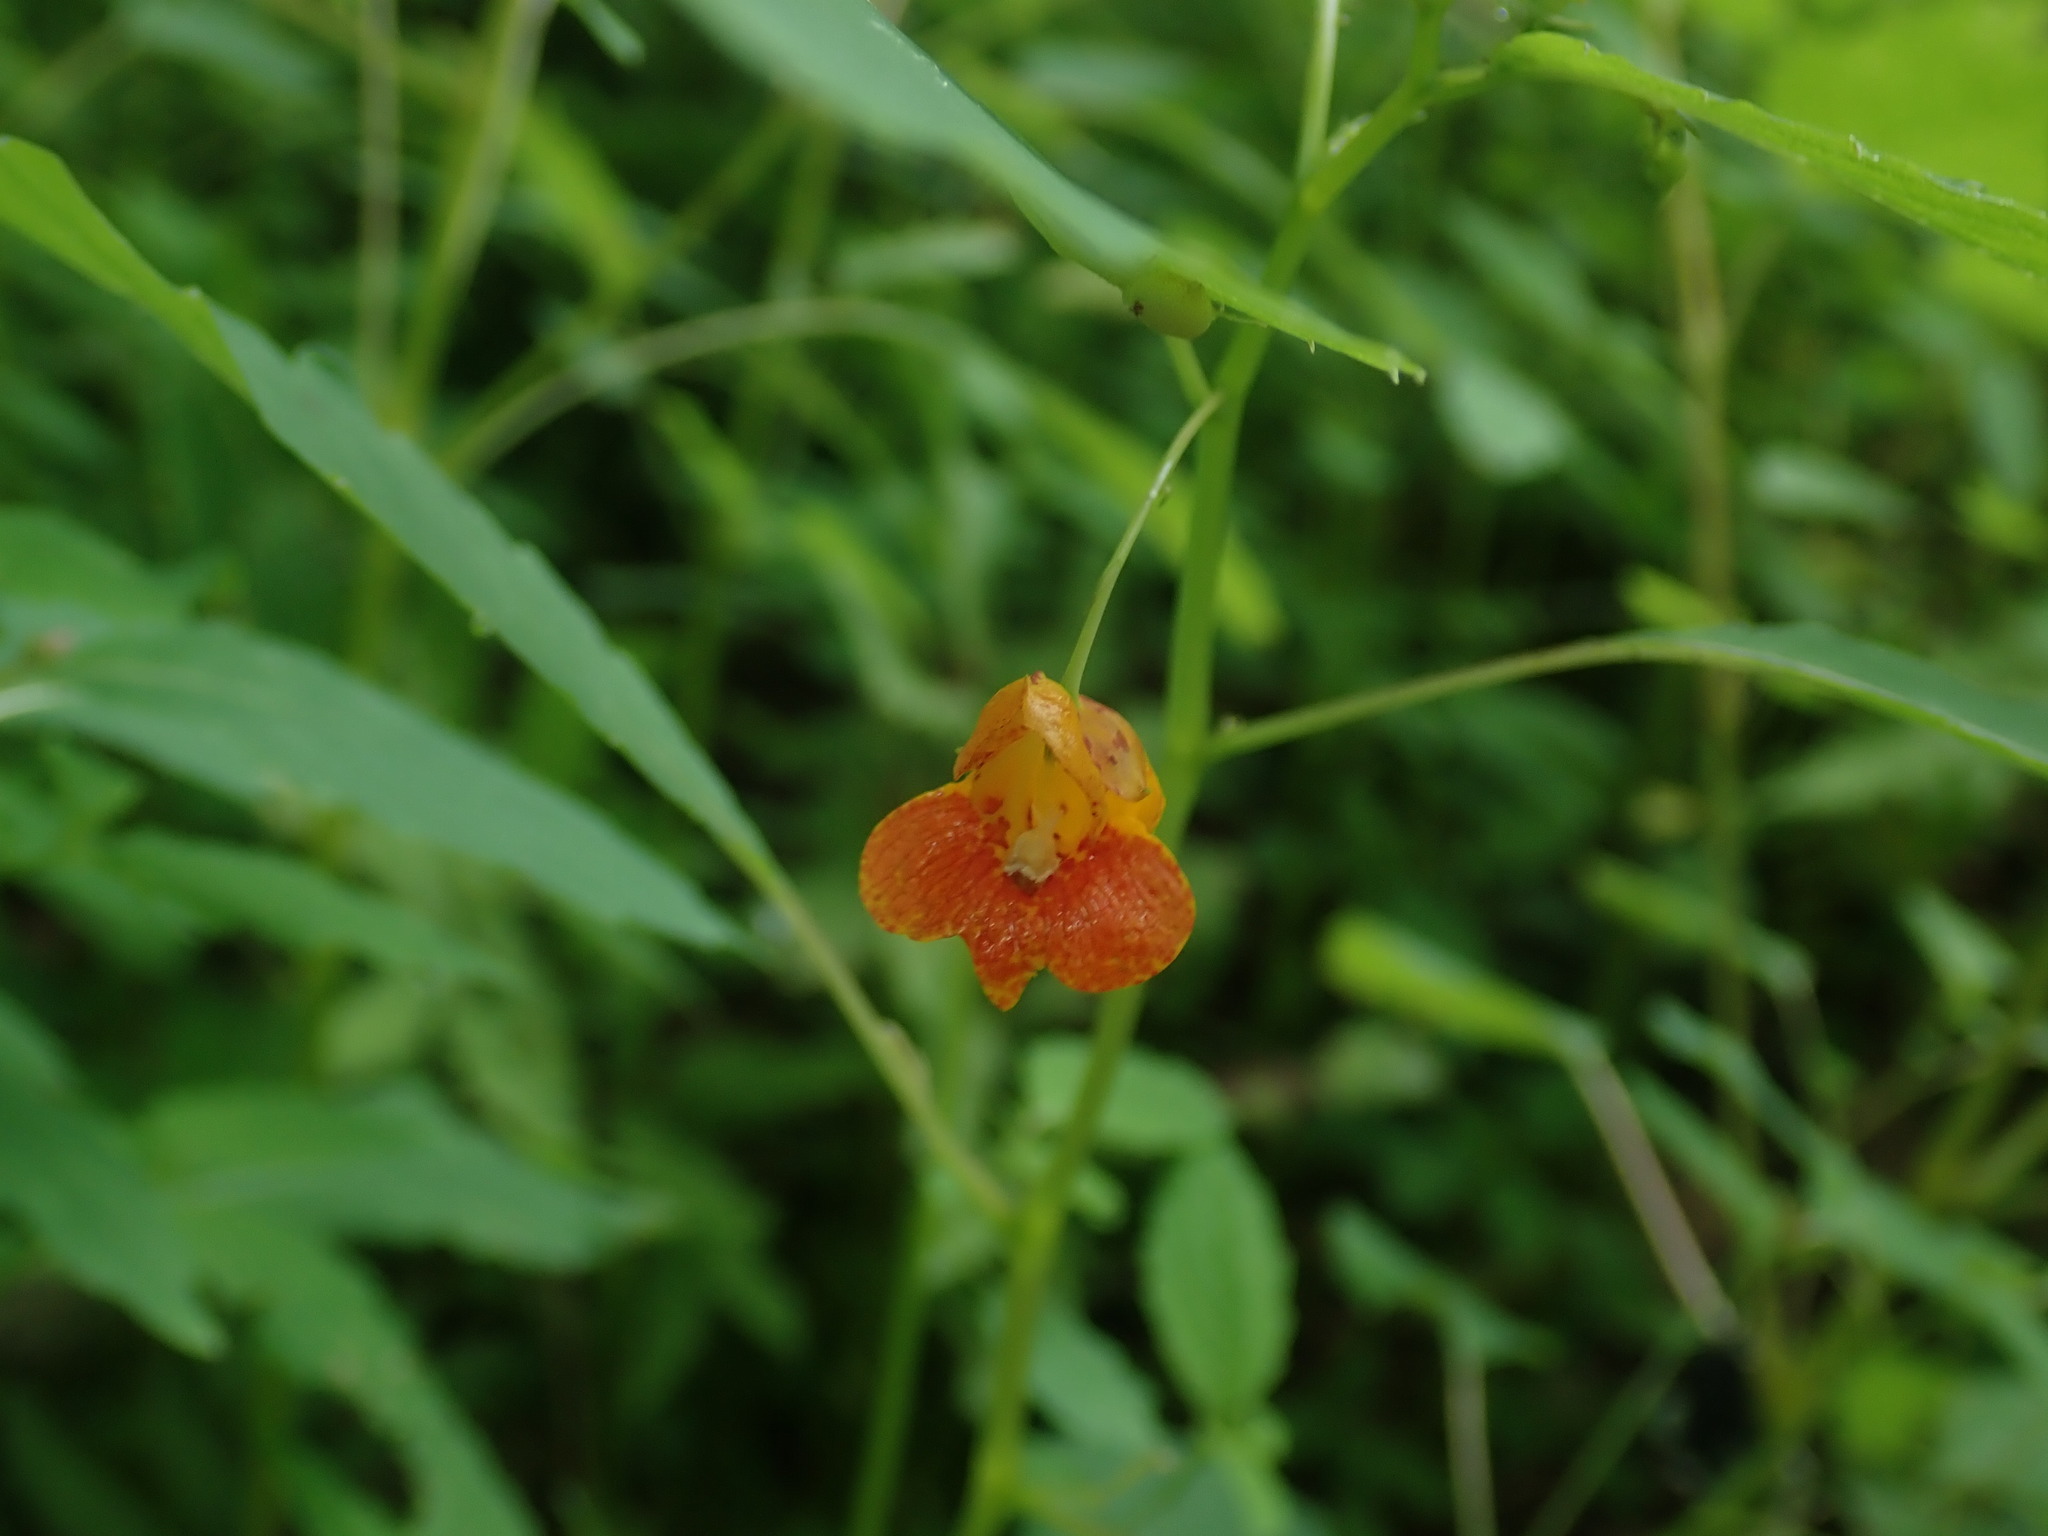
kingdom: Plantae
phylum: Tracheophyta
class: Magnoliopsida
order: Ericales
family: Balsaminaceae
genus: Impatiens
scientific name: Impatiens capensis
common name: Orange balsam
